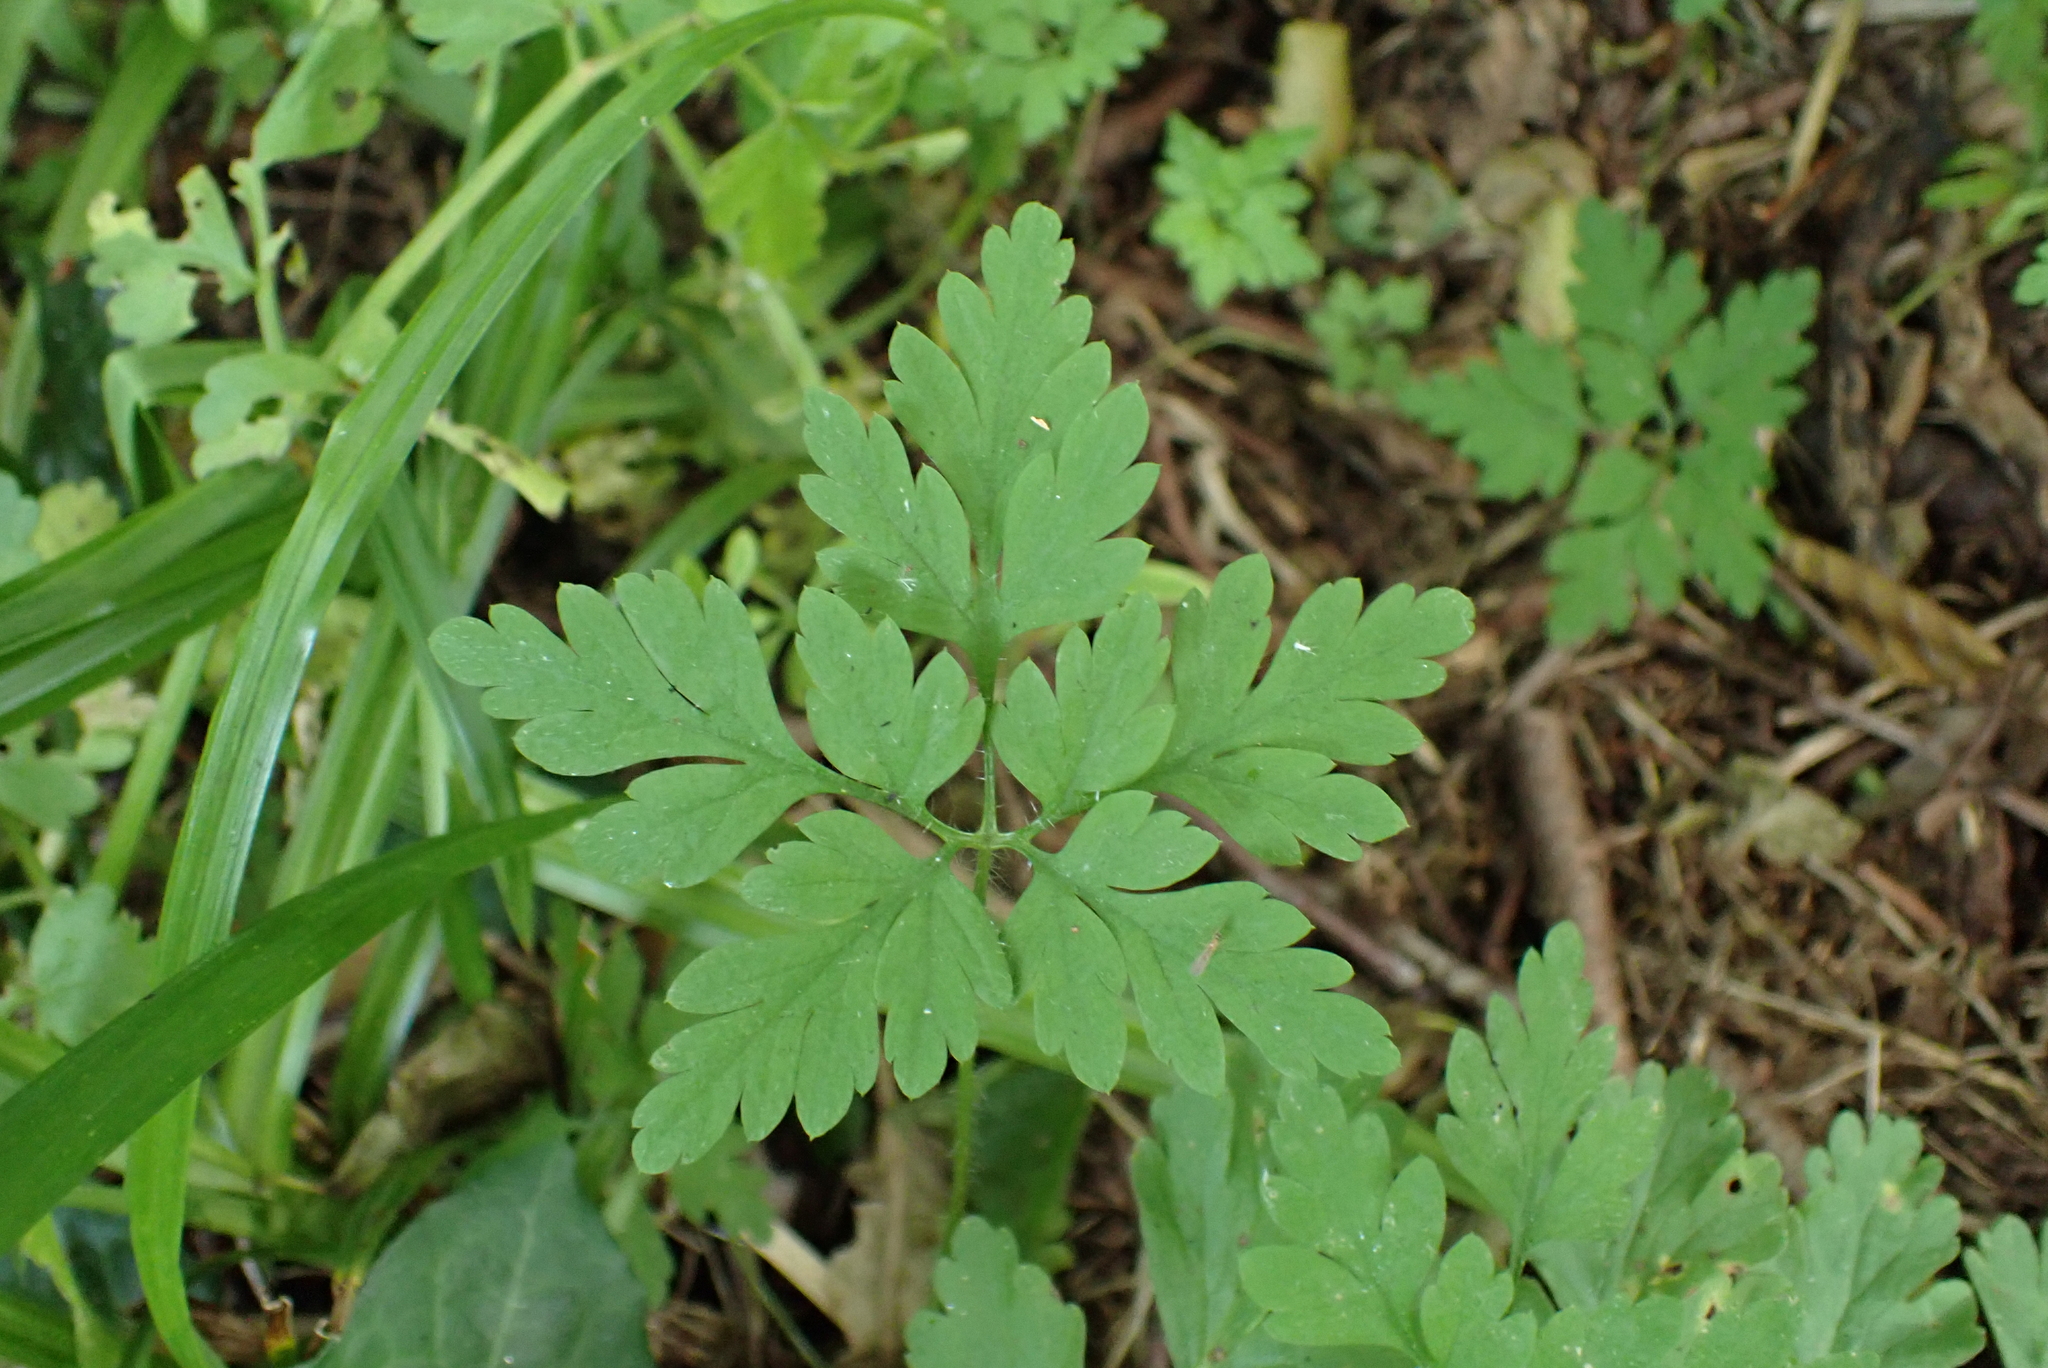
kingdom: Plantae
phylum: Tracheophyta
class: Magnoliopsida
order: Geraniales
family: Geraniaceae
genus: Geranium
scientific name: Geranium robertianum
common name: Herb-robert
